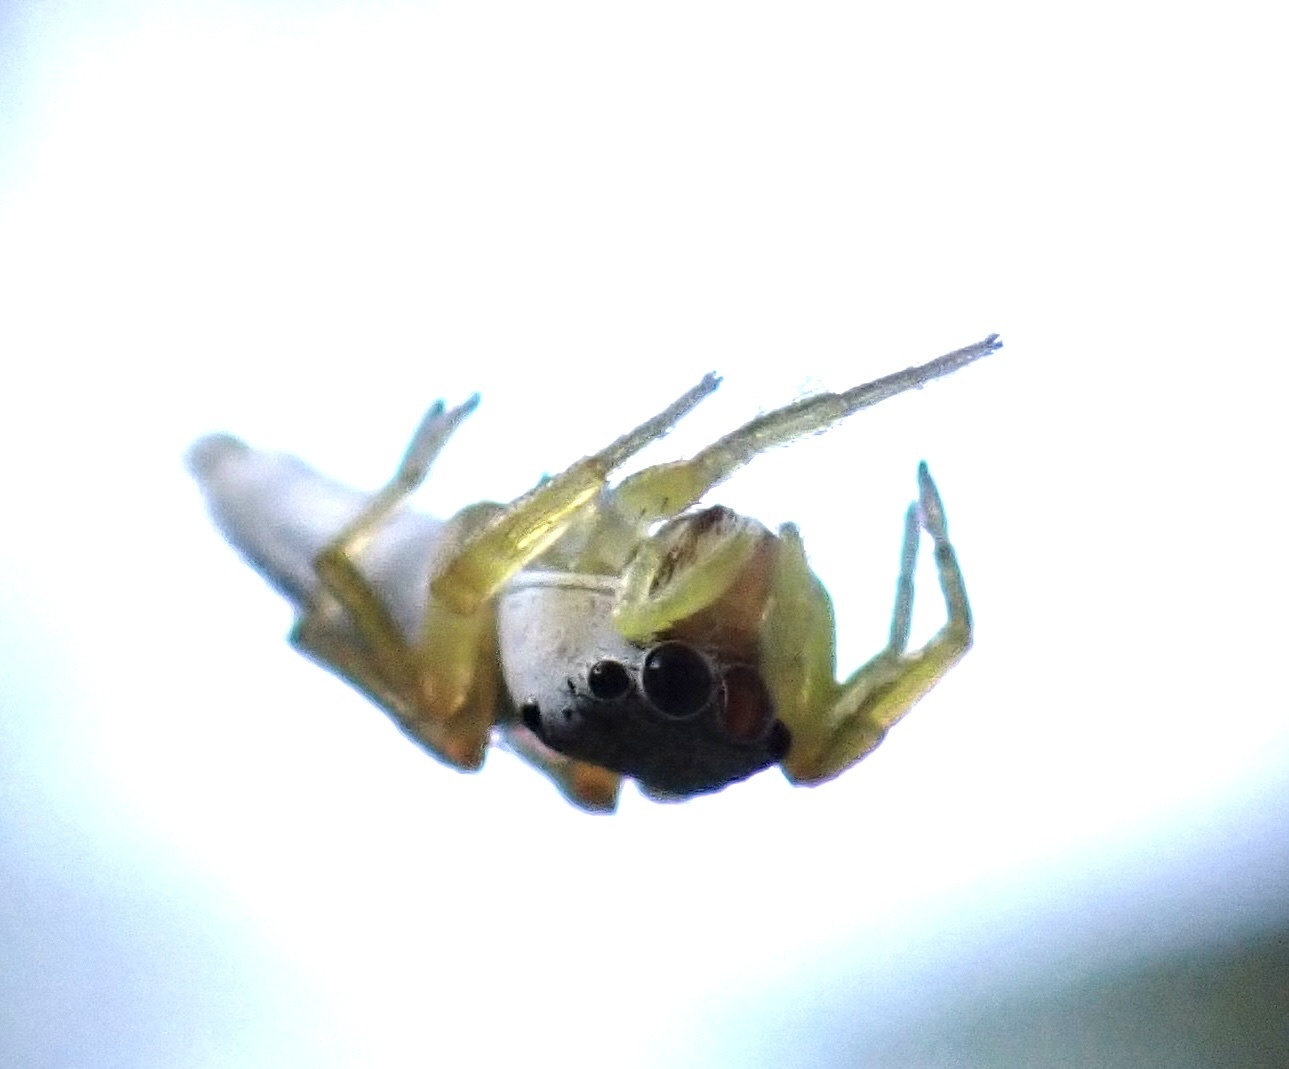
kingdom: Animalia
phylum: Arthropoda
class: Arachnida
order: Araneae
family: Salticidae
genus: Cosmophasis
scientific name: Cosmophasis lami
